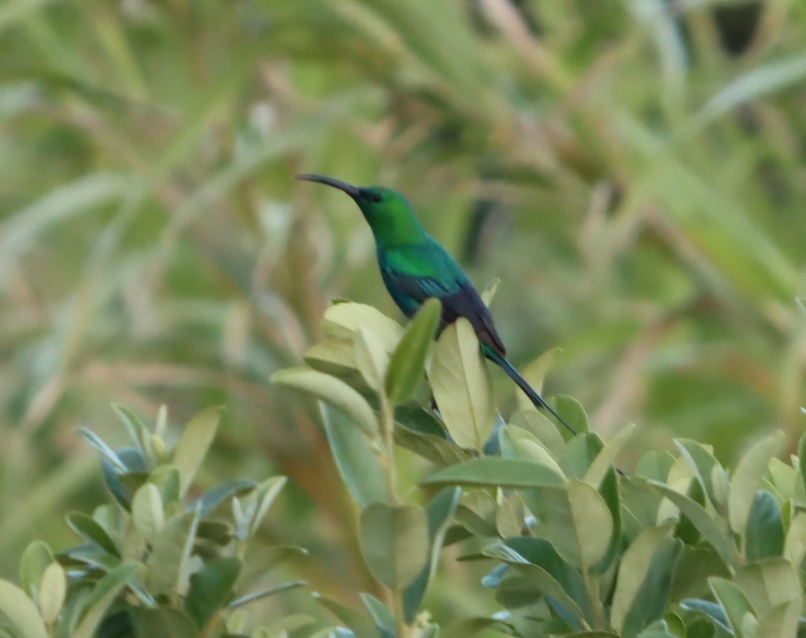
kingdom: Animalia
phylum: Chordata
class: Aves
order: Passeriformes
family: Nectariniidae
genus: Nectarinia
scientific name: Nectarinia famosa
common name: Malachite sunbird
